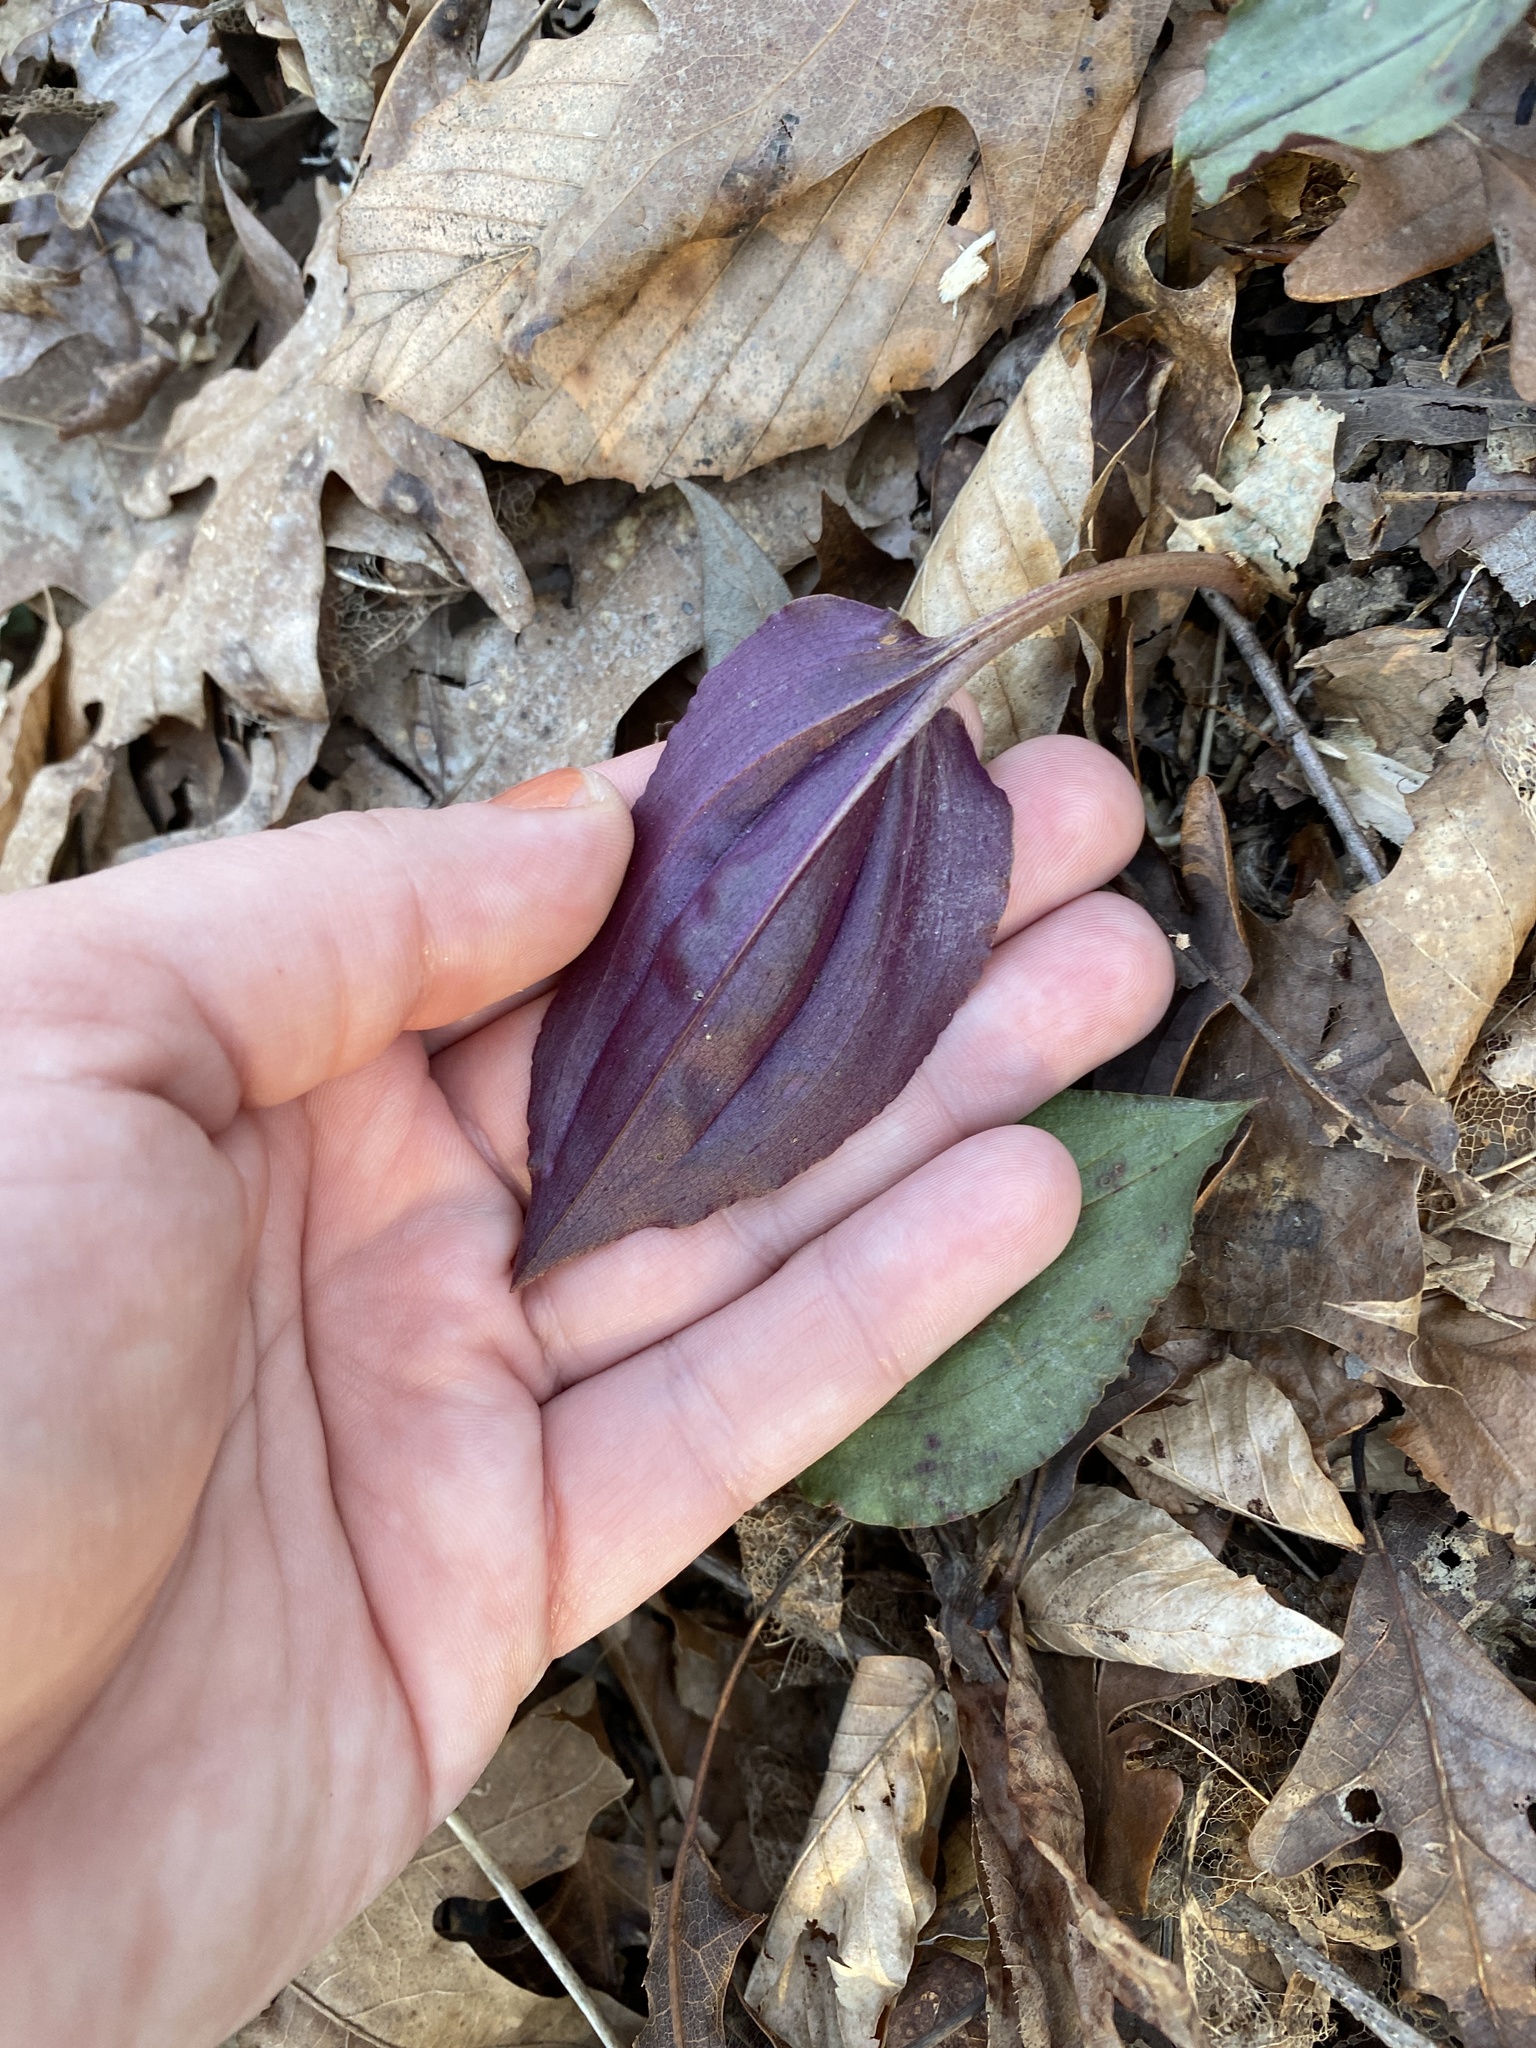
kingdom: Plantae
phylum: Tracheophyta
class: Liliopsida
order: Asparagales
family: Orchidaceae
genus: Tipularia
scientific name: Tipularia discolor
